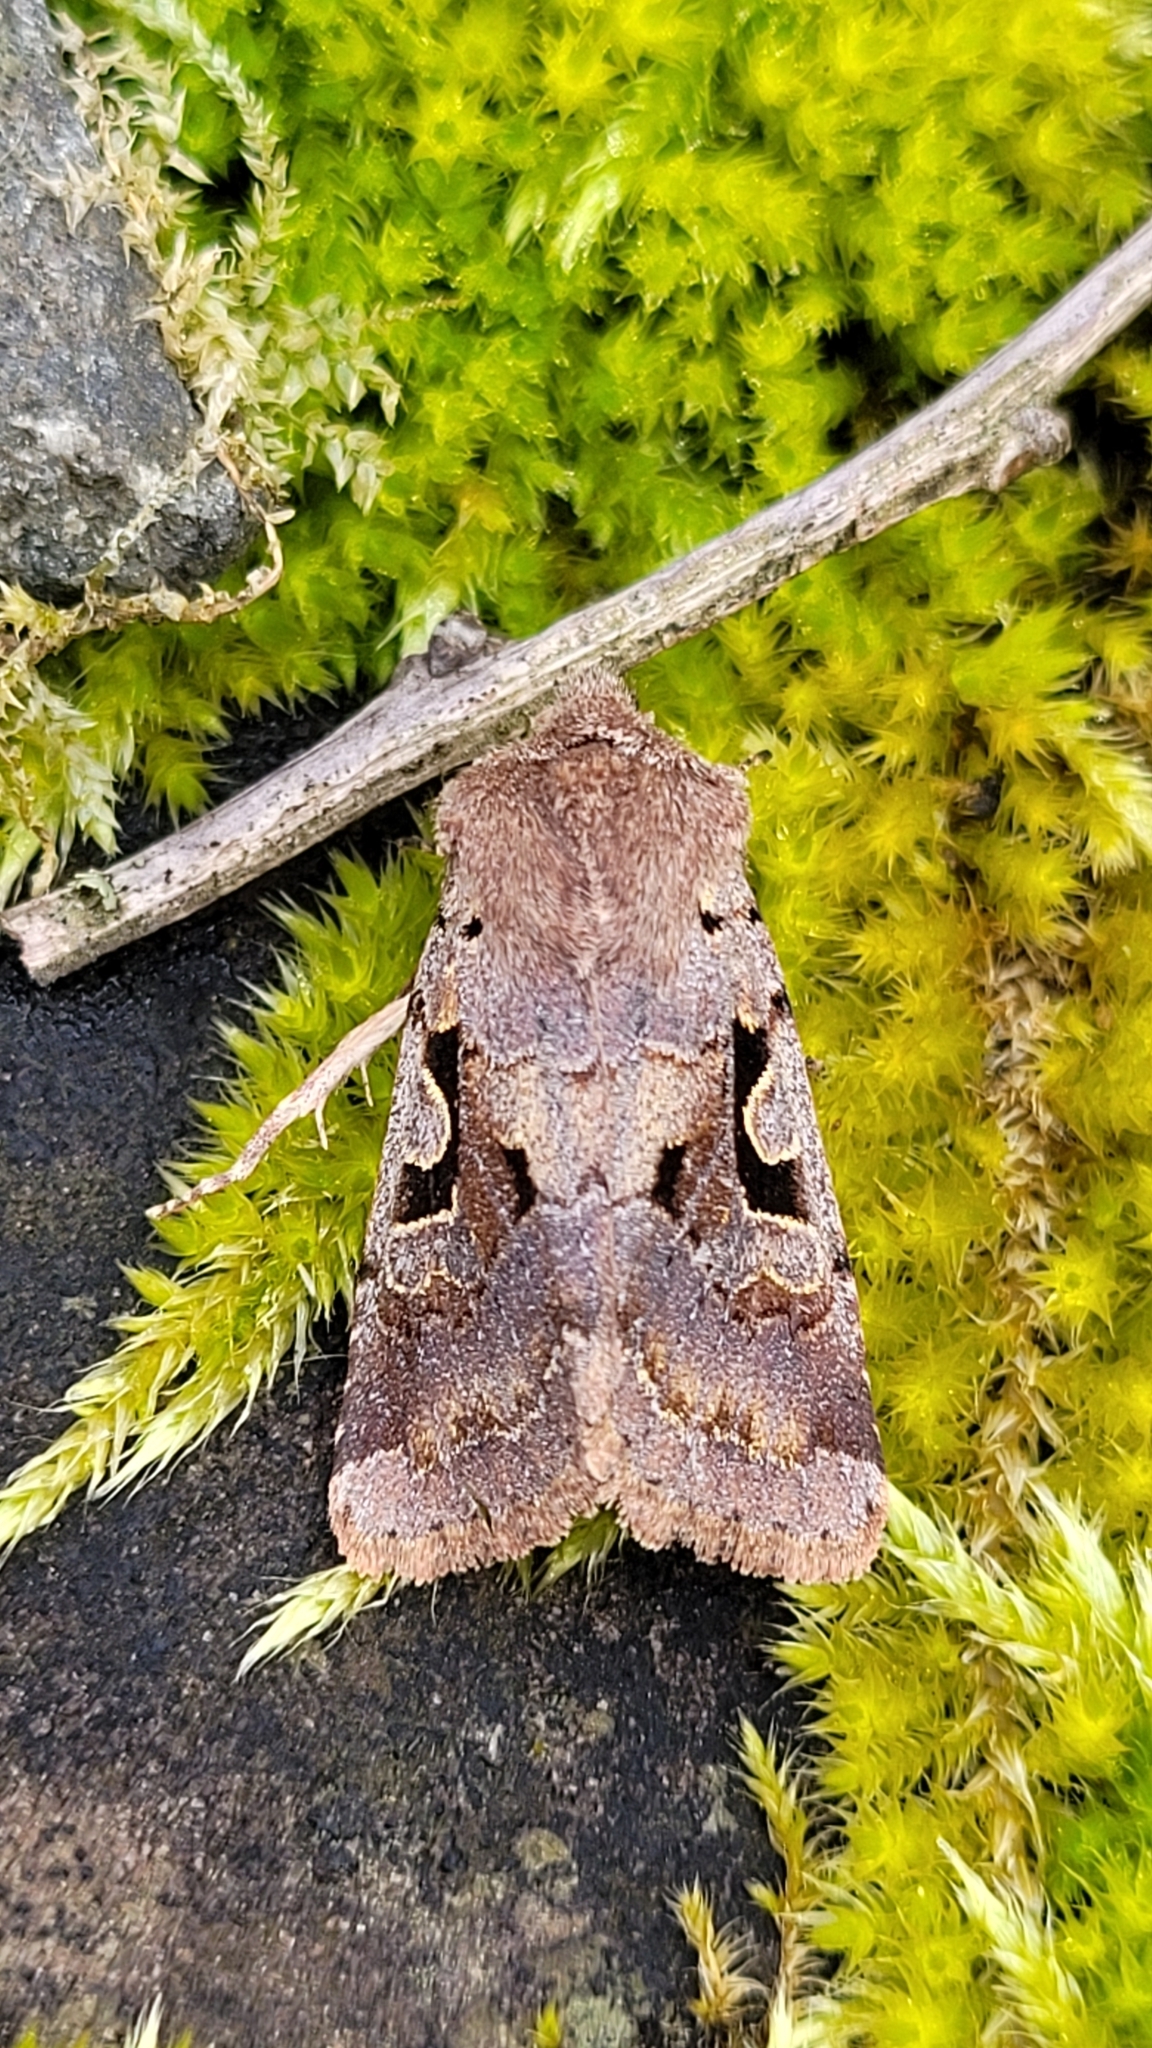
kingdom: Animalia
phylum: Arthropoda
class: Insecta
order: Lepidoptera
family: Noctuidae
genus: Orthosia
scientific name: Orthosia gothica
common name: Hebrew character
